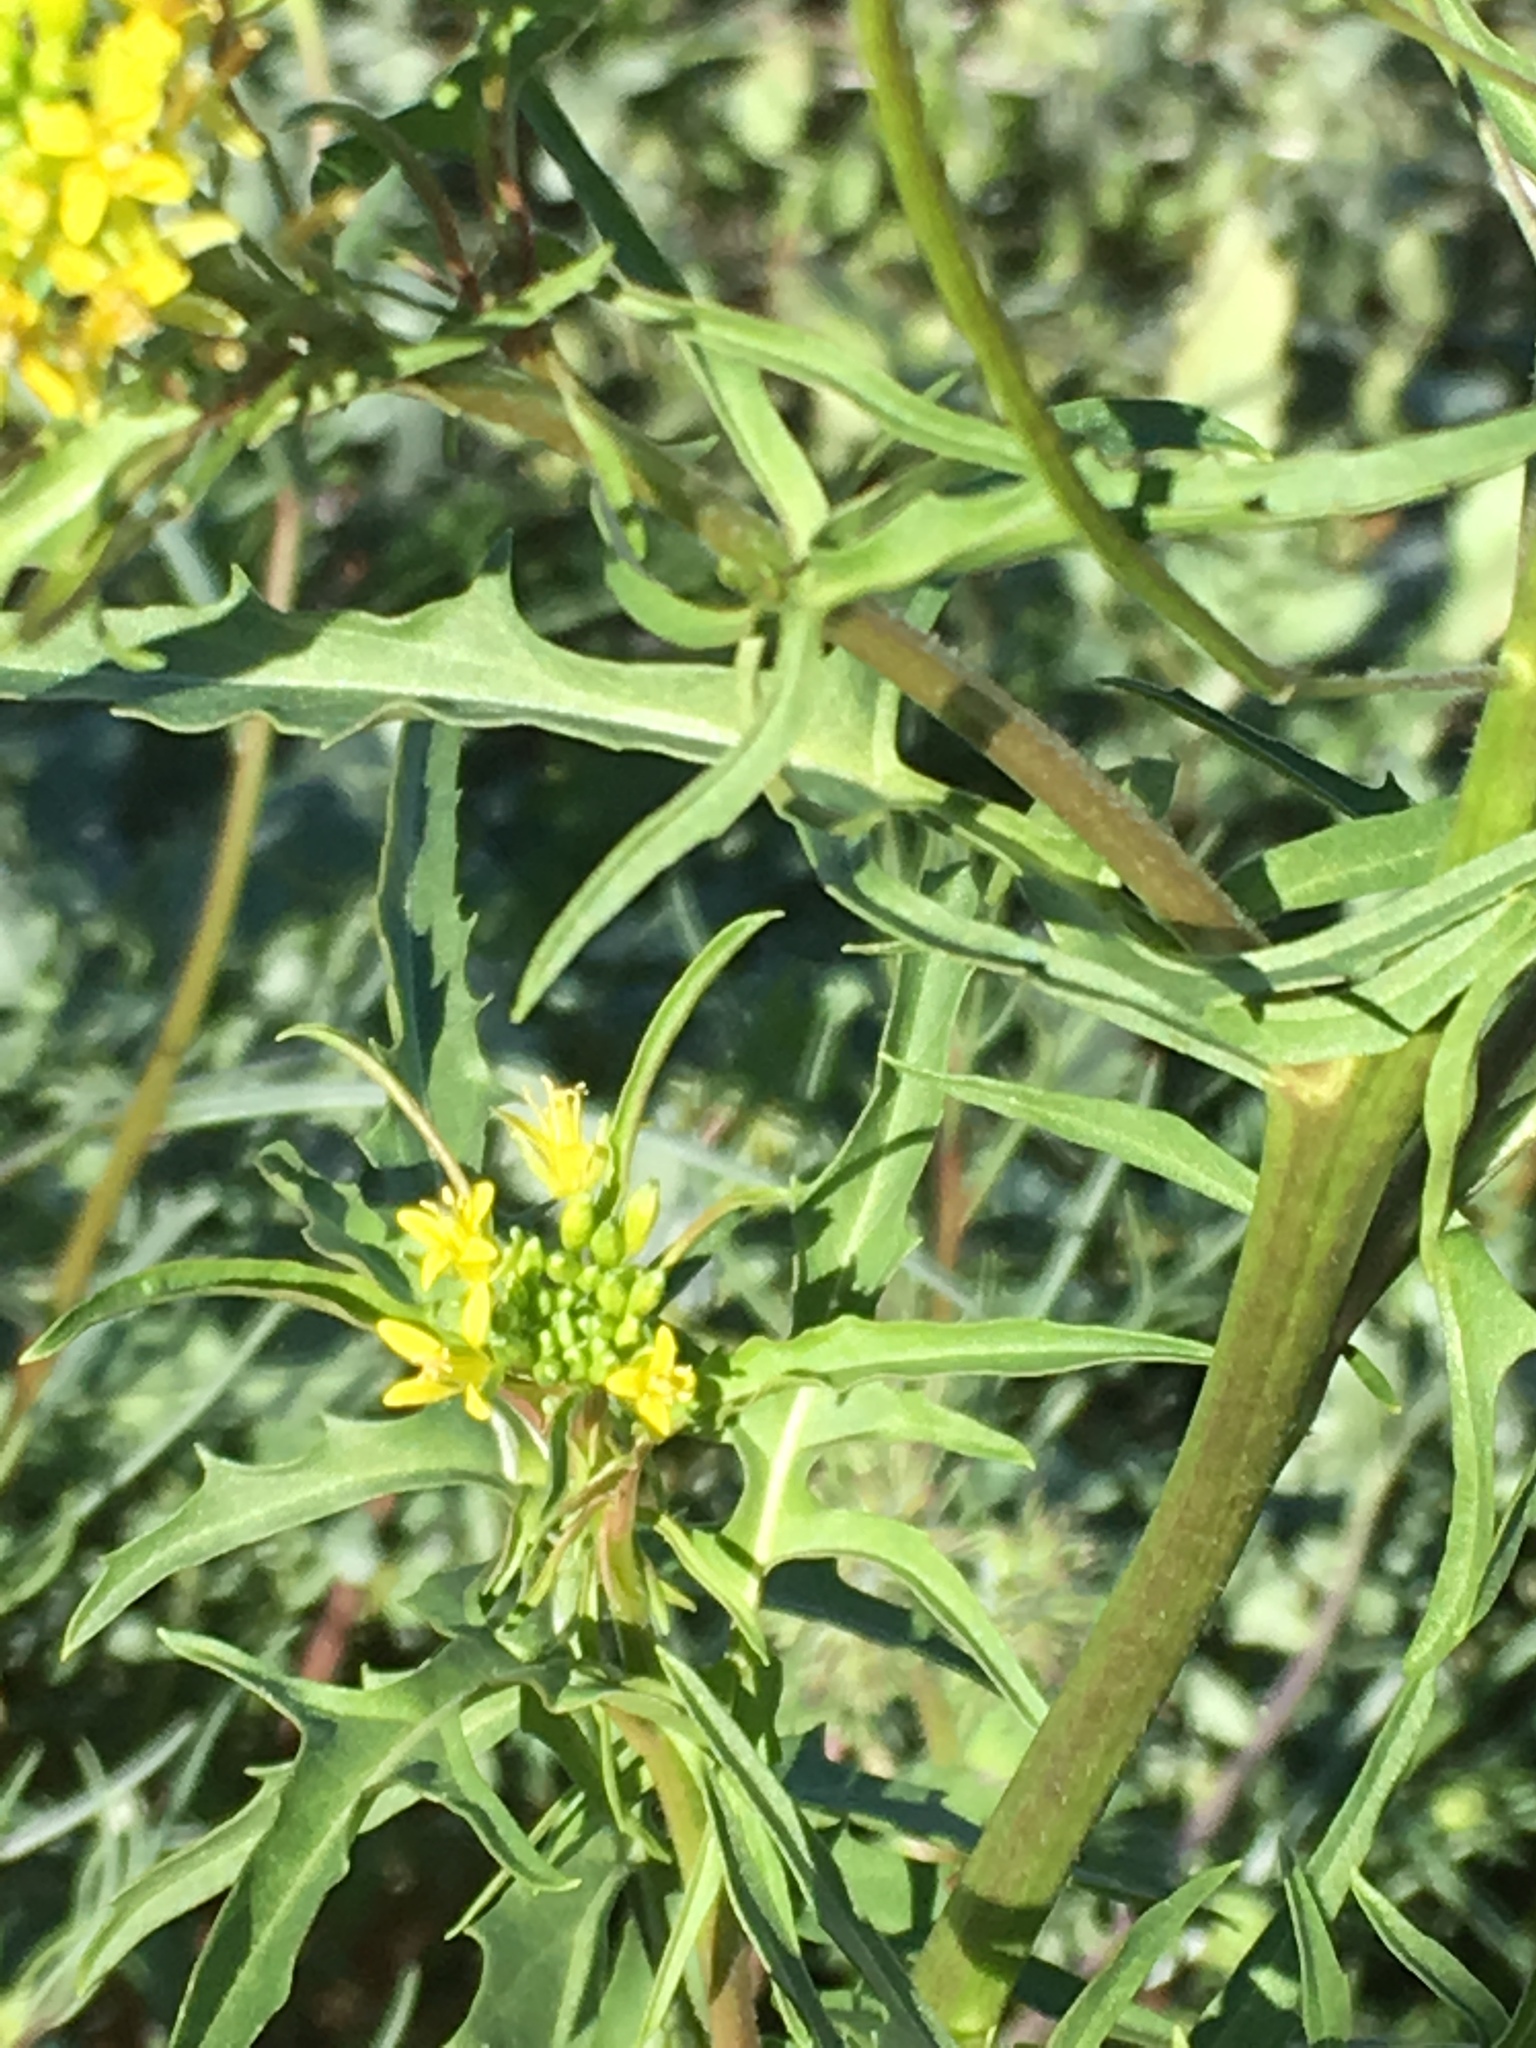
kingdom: Plantae
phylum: Tracheophyta
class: Magnoliopsida
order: Brassicales
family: Brassicaceae
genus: Sisymbrium
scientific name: Sisymbrium irio
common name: London rocket
